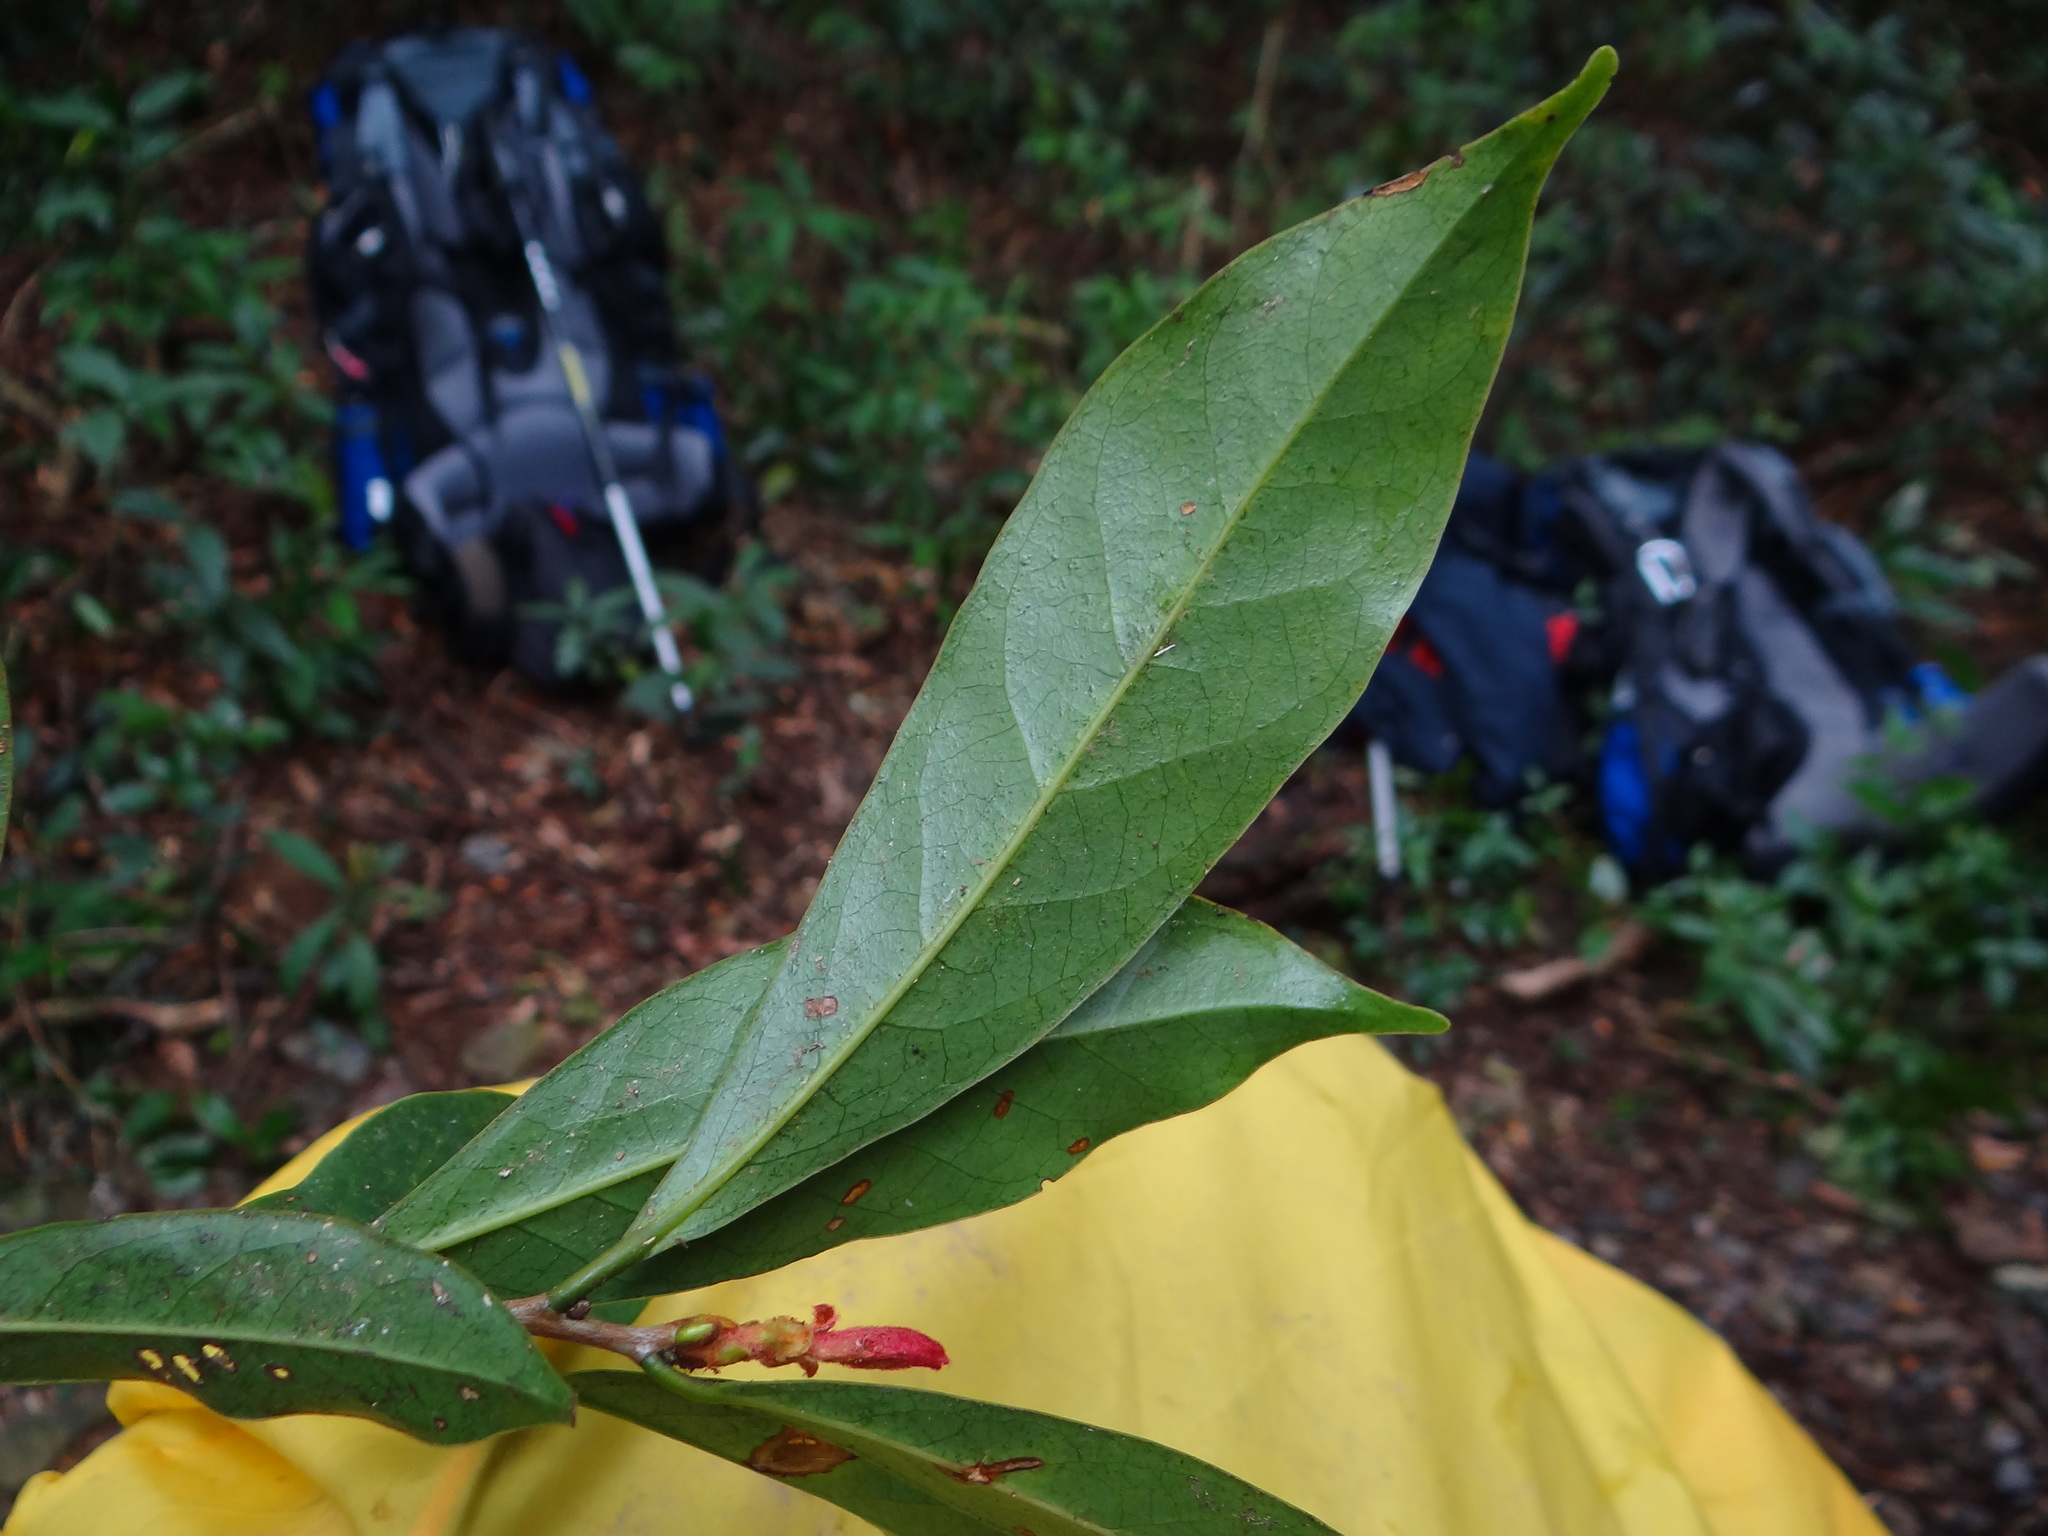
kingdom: Plantae
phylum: Tracheophyta
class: Magnoliopsida
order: Ericales
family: Symplocaceae
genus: Symplocos
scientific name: Symplocos congesta
